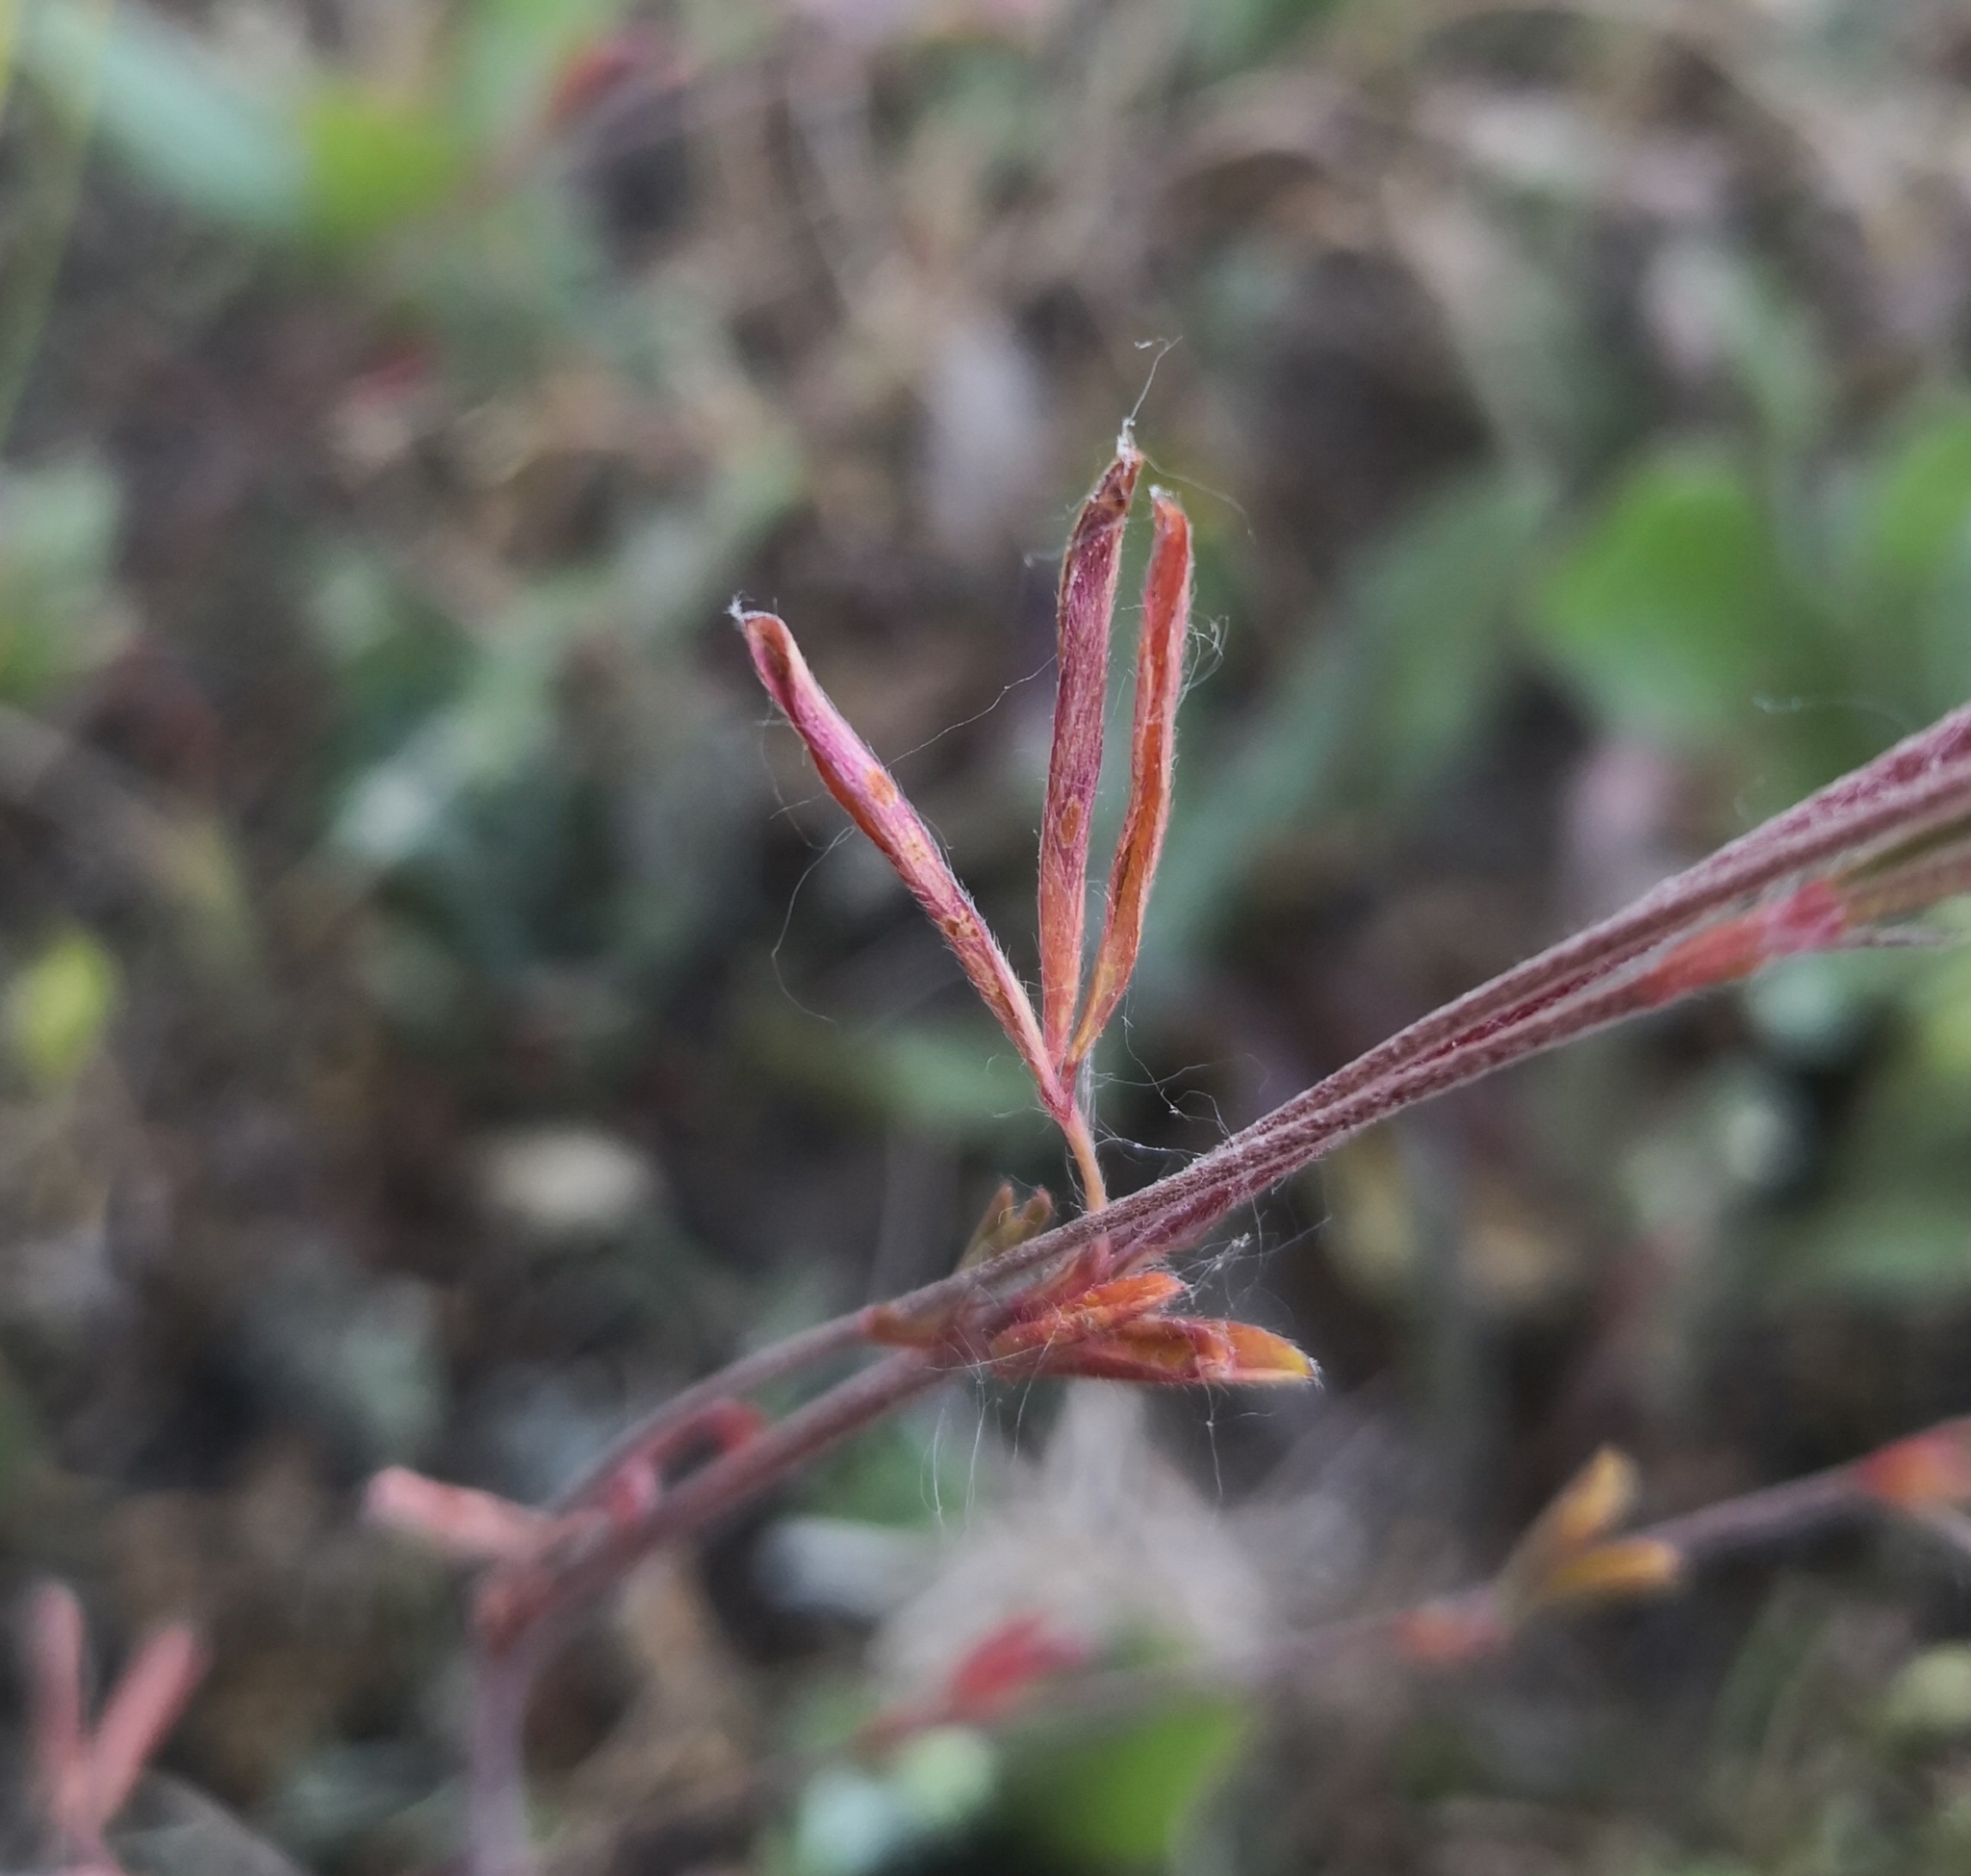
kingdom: Plantae
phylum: Tracheophyta
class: Magnoliopsida
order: Fabales
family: Fabaceae
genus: Trifolium
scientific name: Trifolium arvense
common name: Hare's-foot clover
